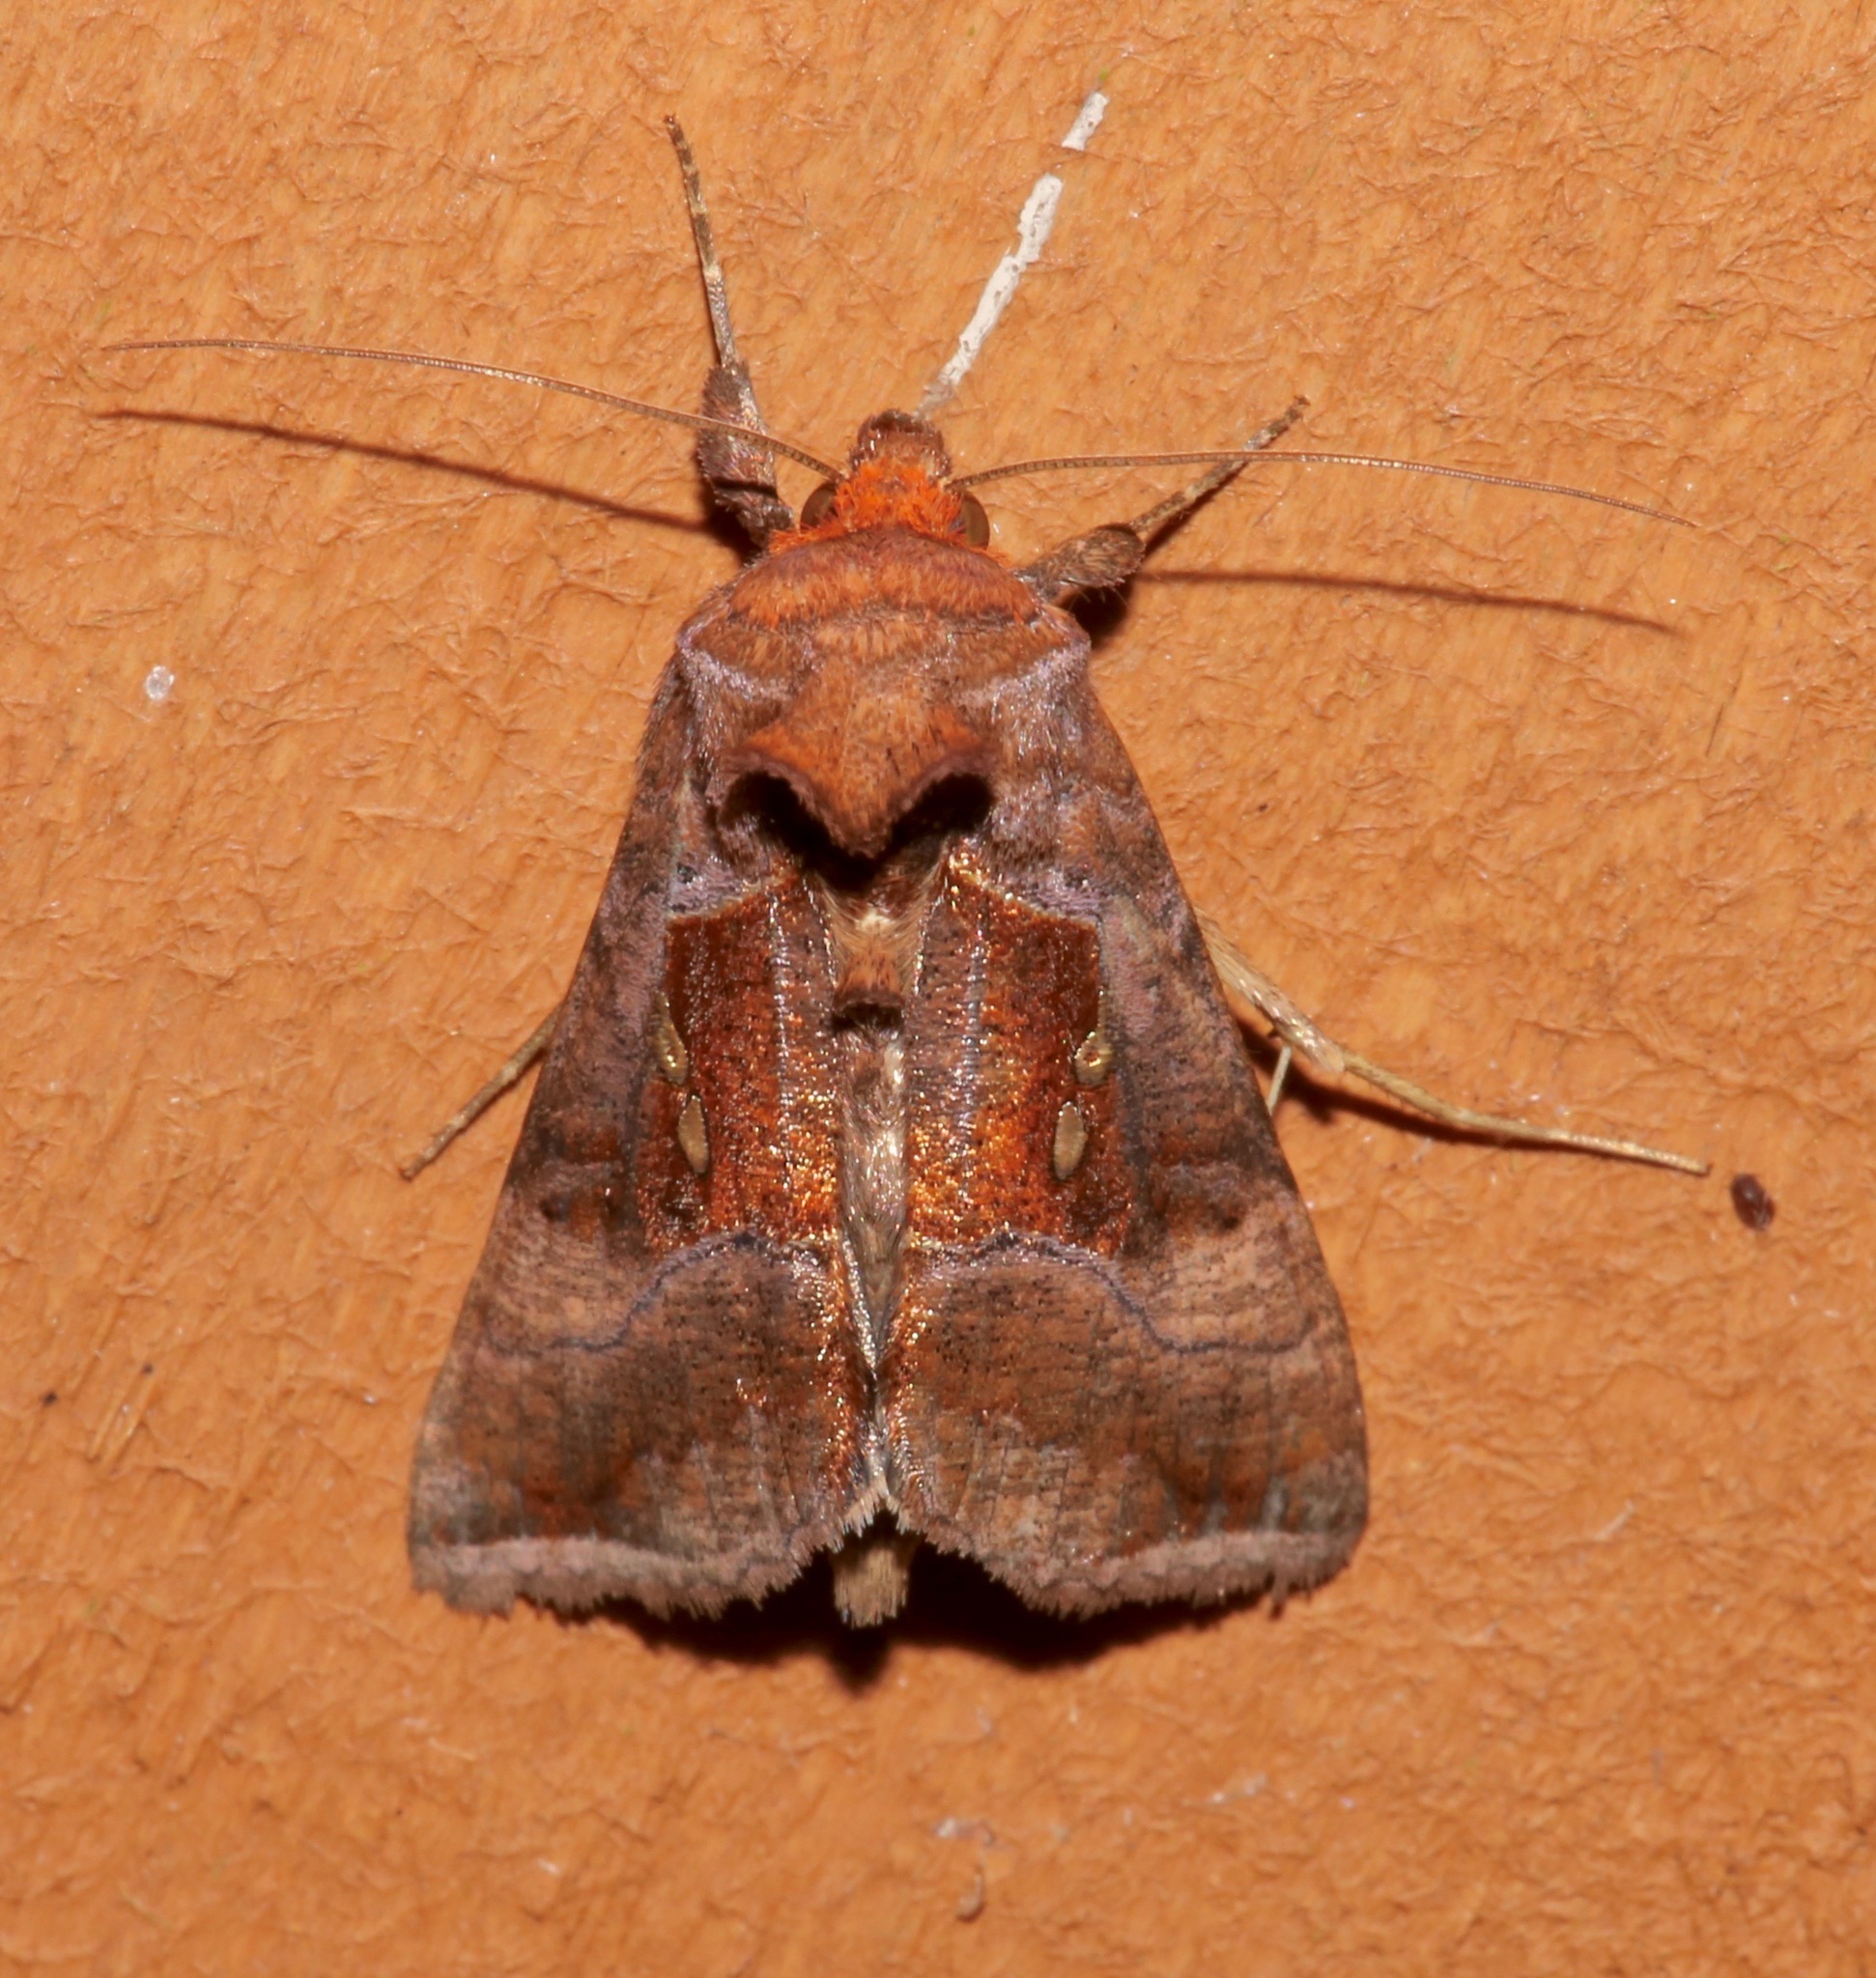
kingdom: Animalia
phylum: Arthropoda
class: Insecta
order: Lepidoptera
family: Noctuidae
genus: Enigmogramma
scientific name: Enigmogramma basigera
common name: Pink-washed looper moth
